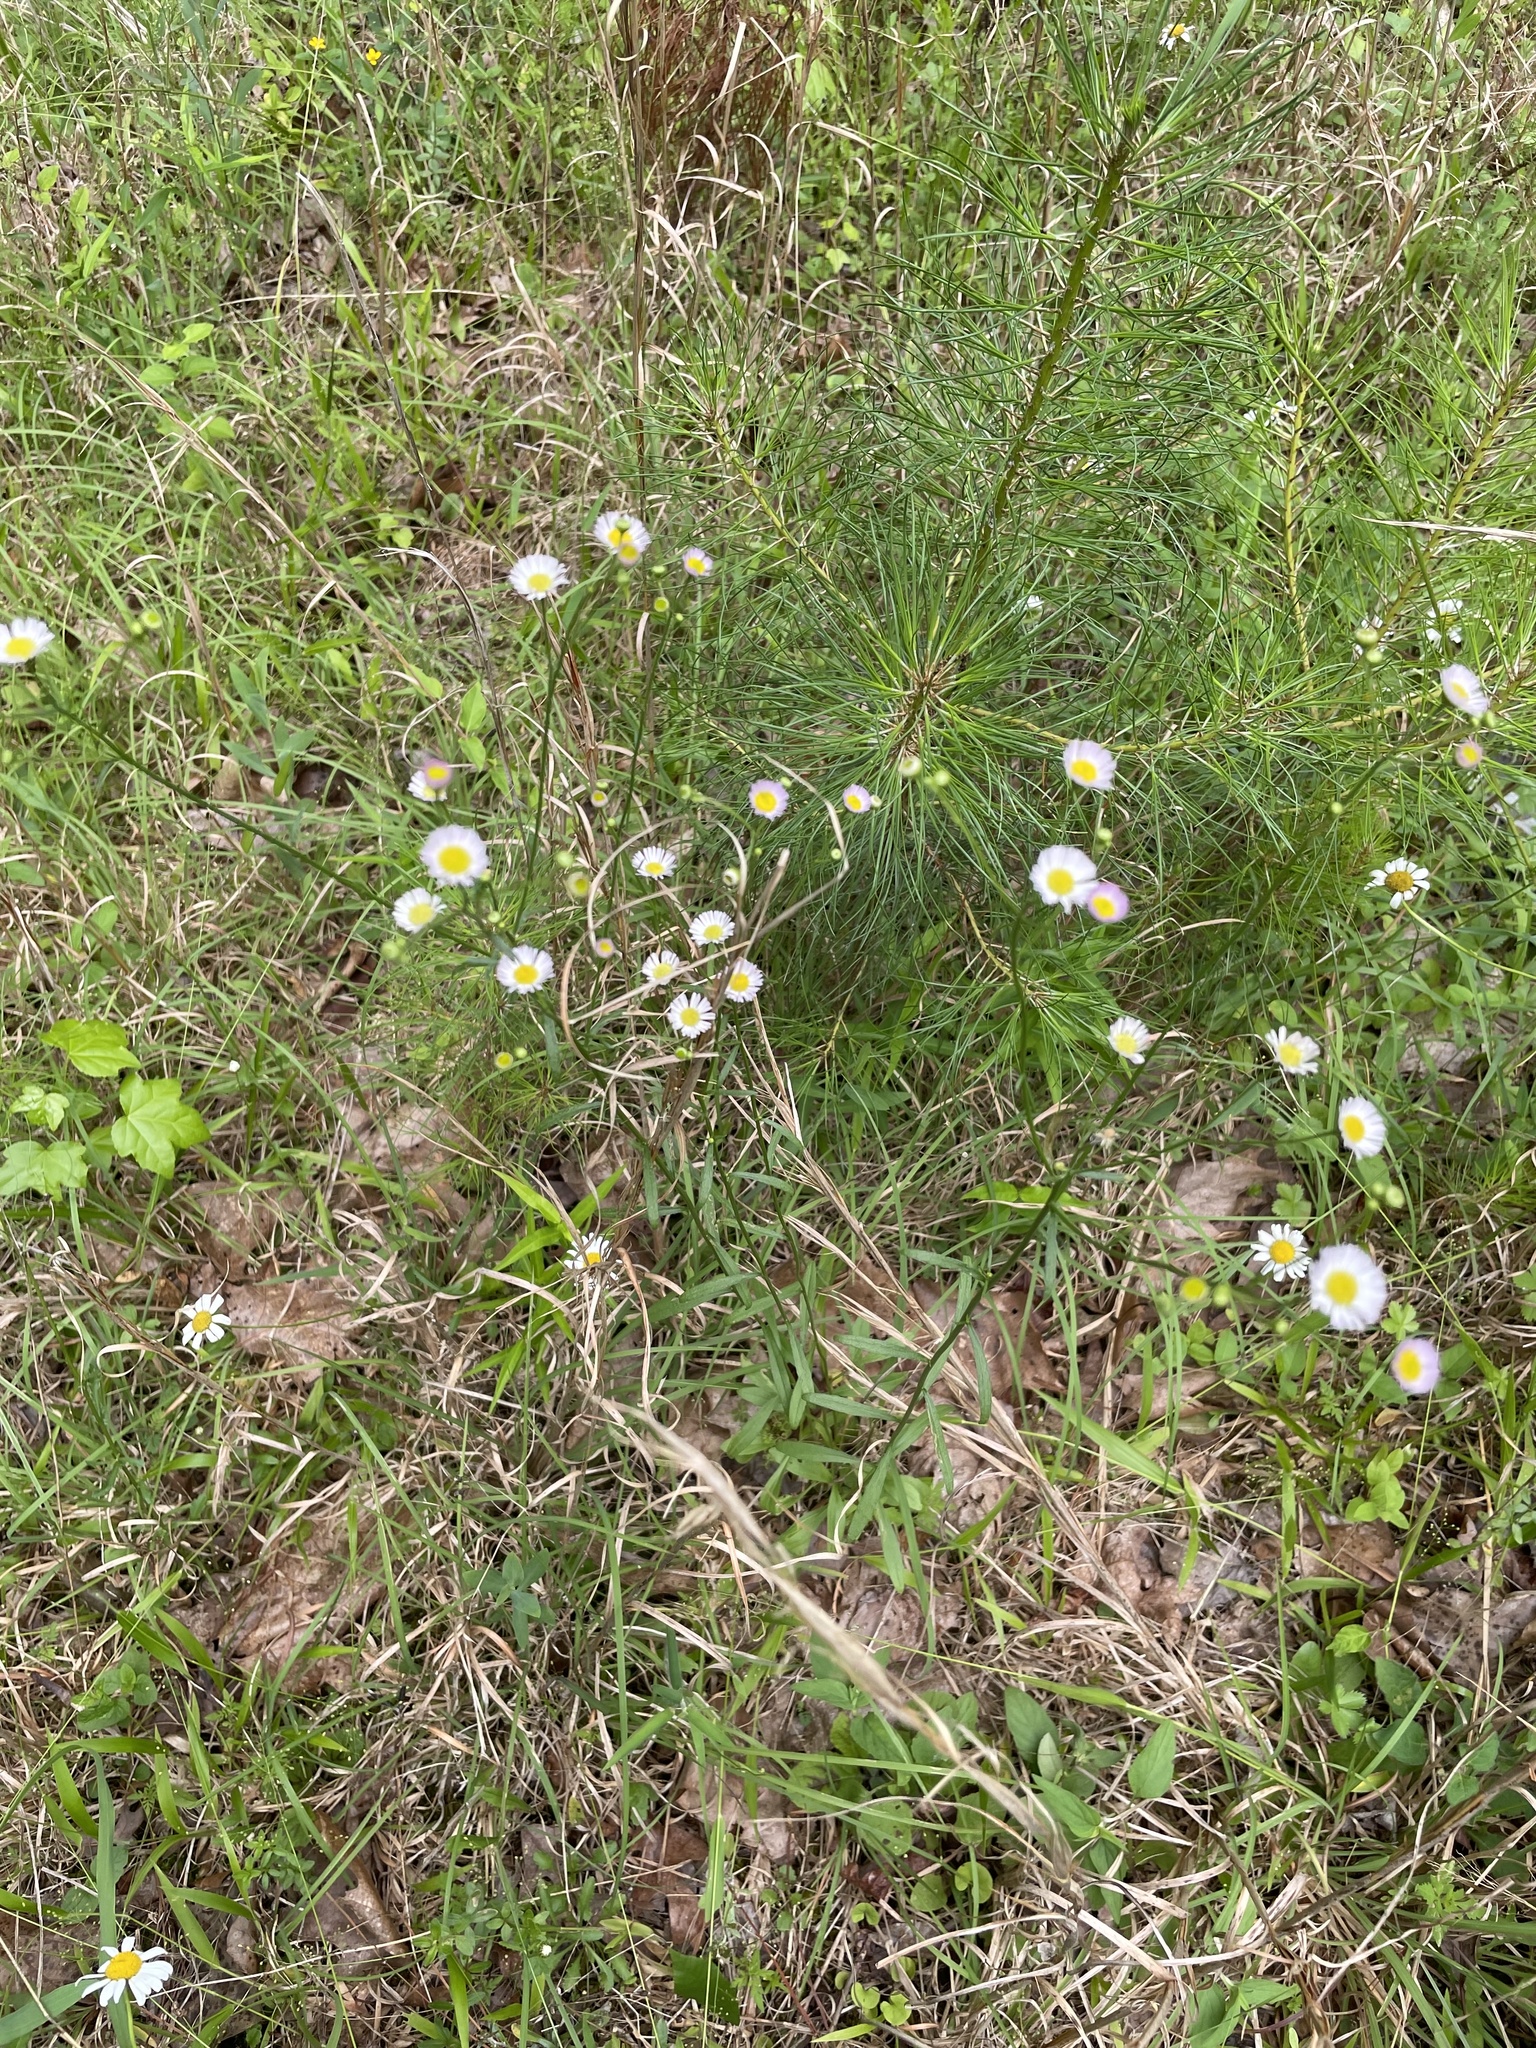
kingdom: Plantae
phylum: Tracheophyta
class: Magnoliopsida
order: Asterales
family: Asteraceae
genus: Erigeron
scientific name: Erigeron strigosus
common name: Common eastern fleabane
